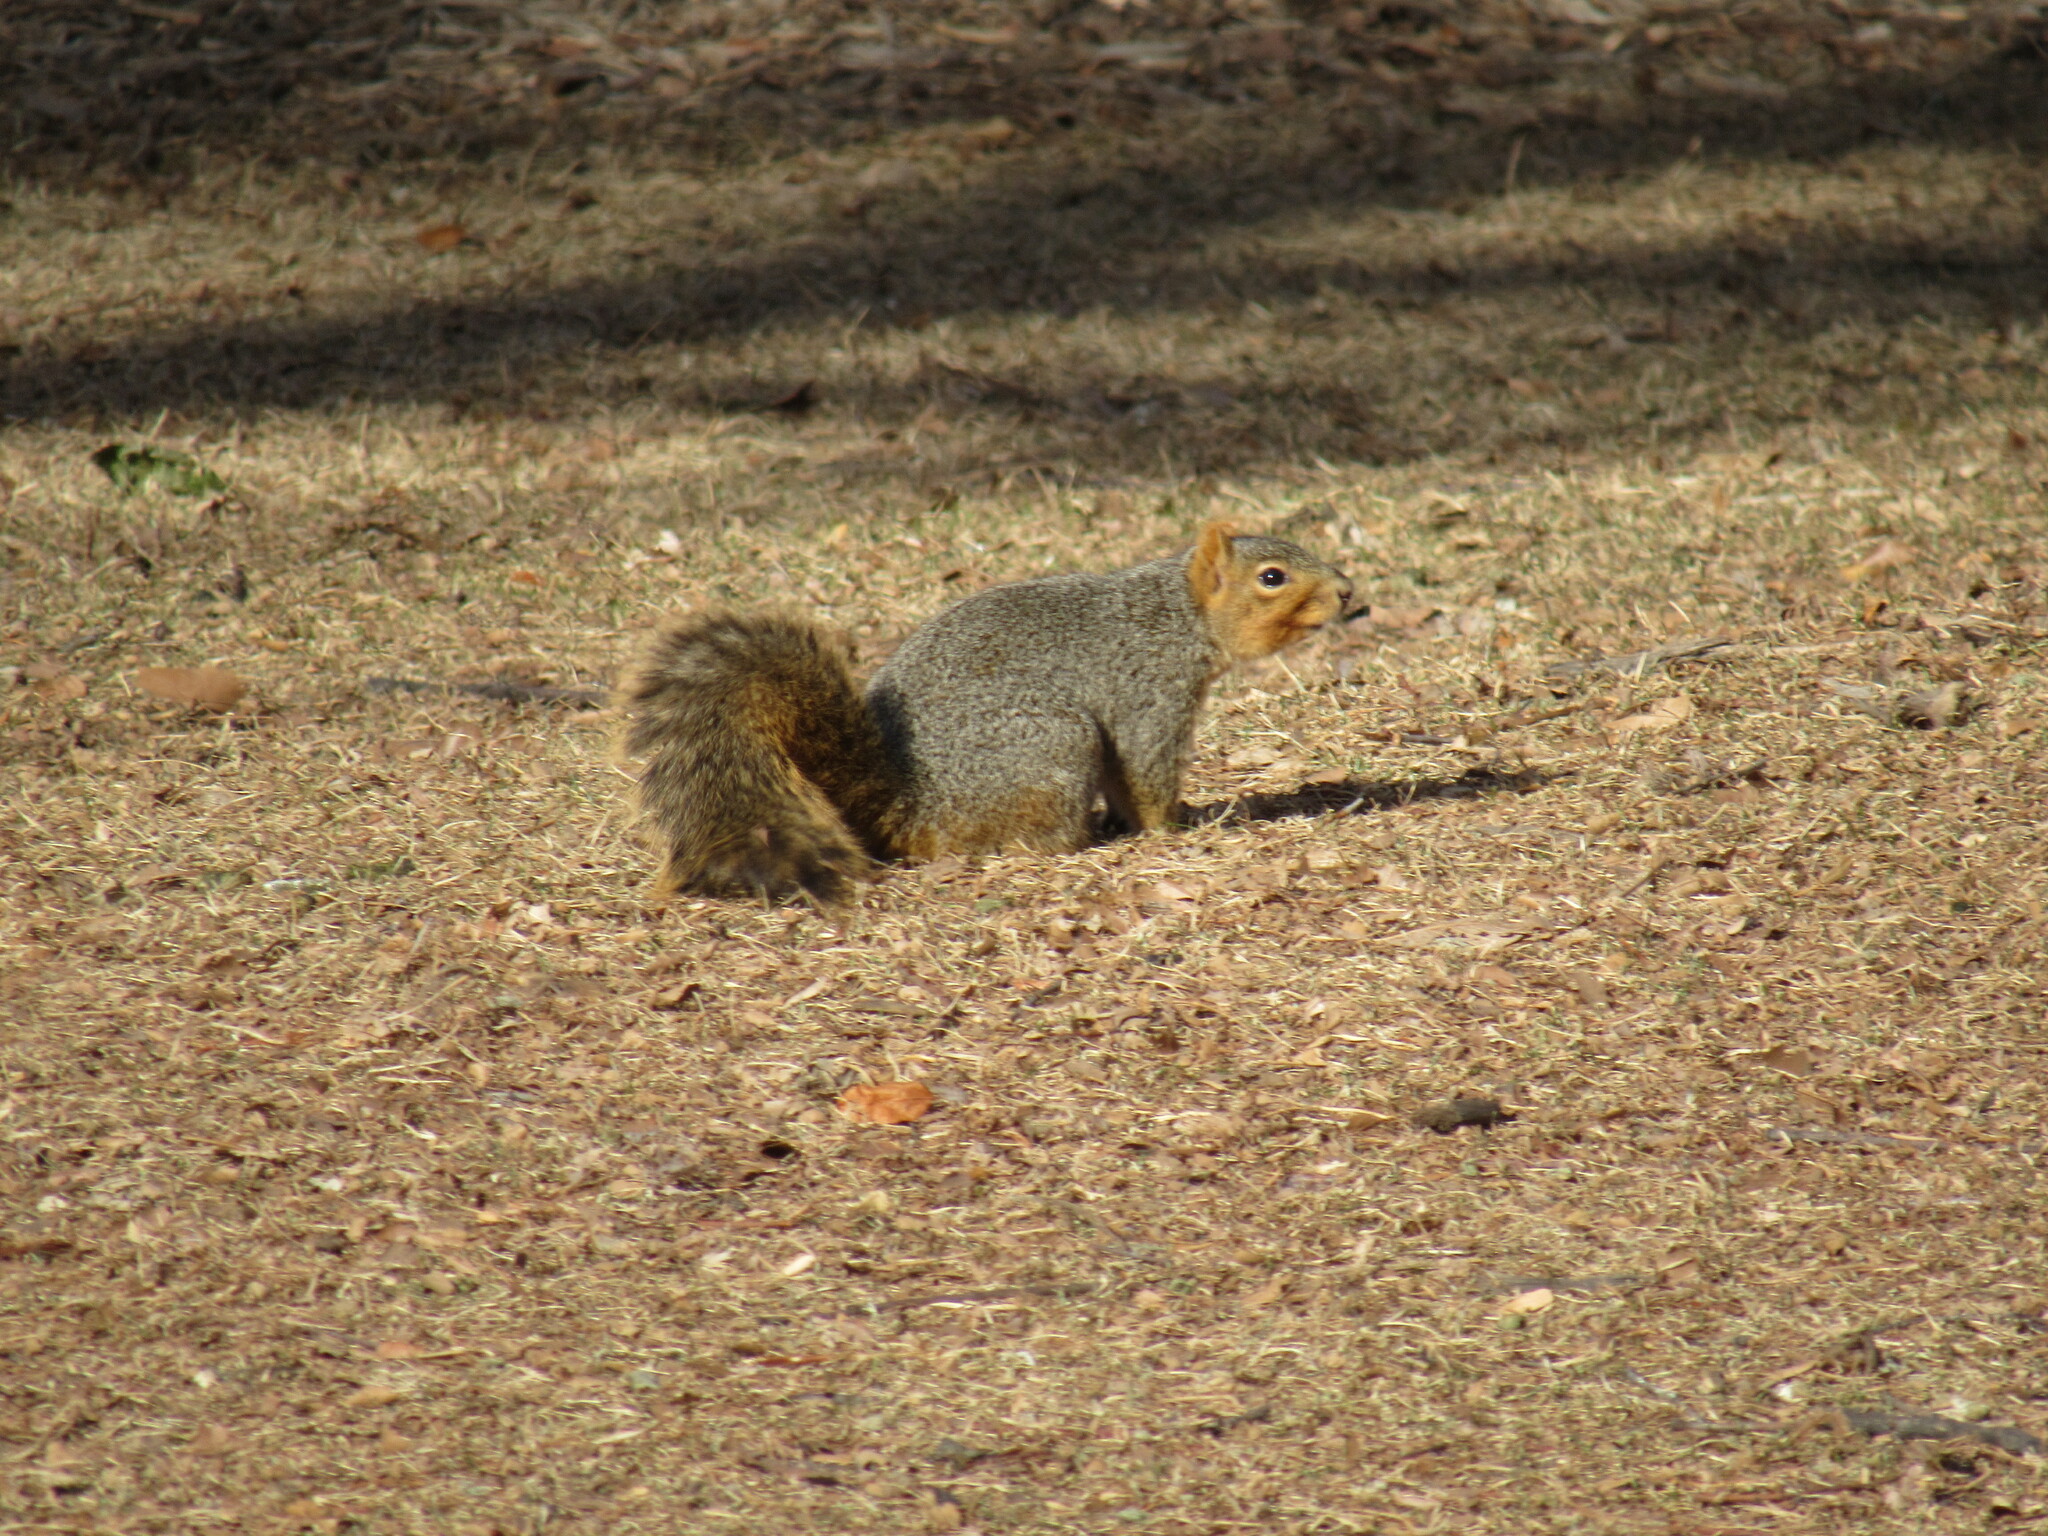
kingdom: Animalia
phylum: Chordata
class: Mammalia
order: Rodentia
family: Sciuridae
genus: Sciurus
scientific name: Sciurus niger
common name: Fox squirrel
